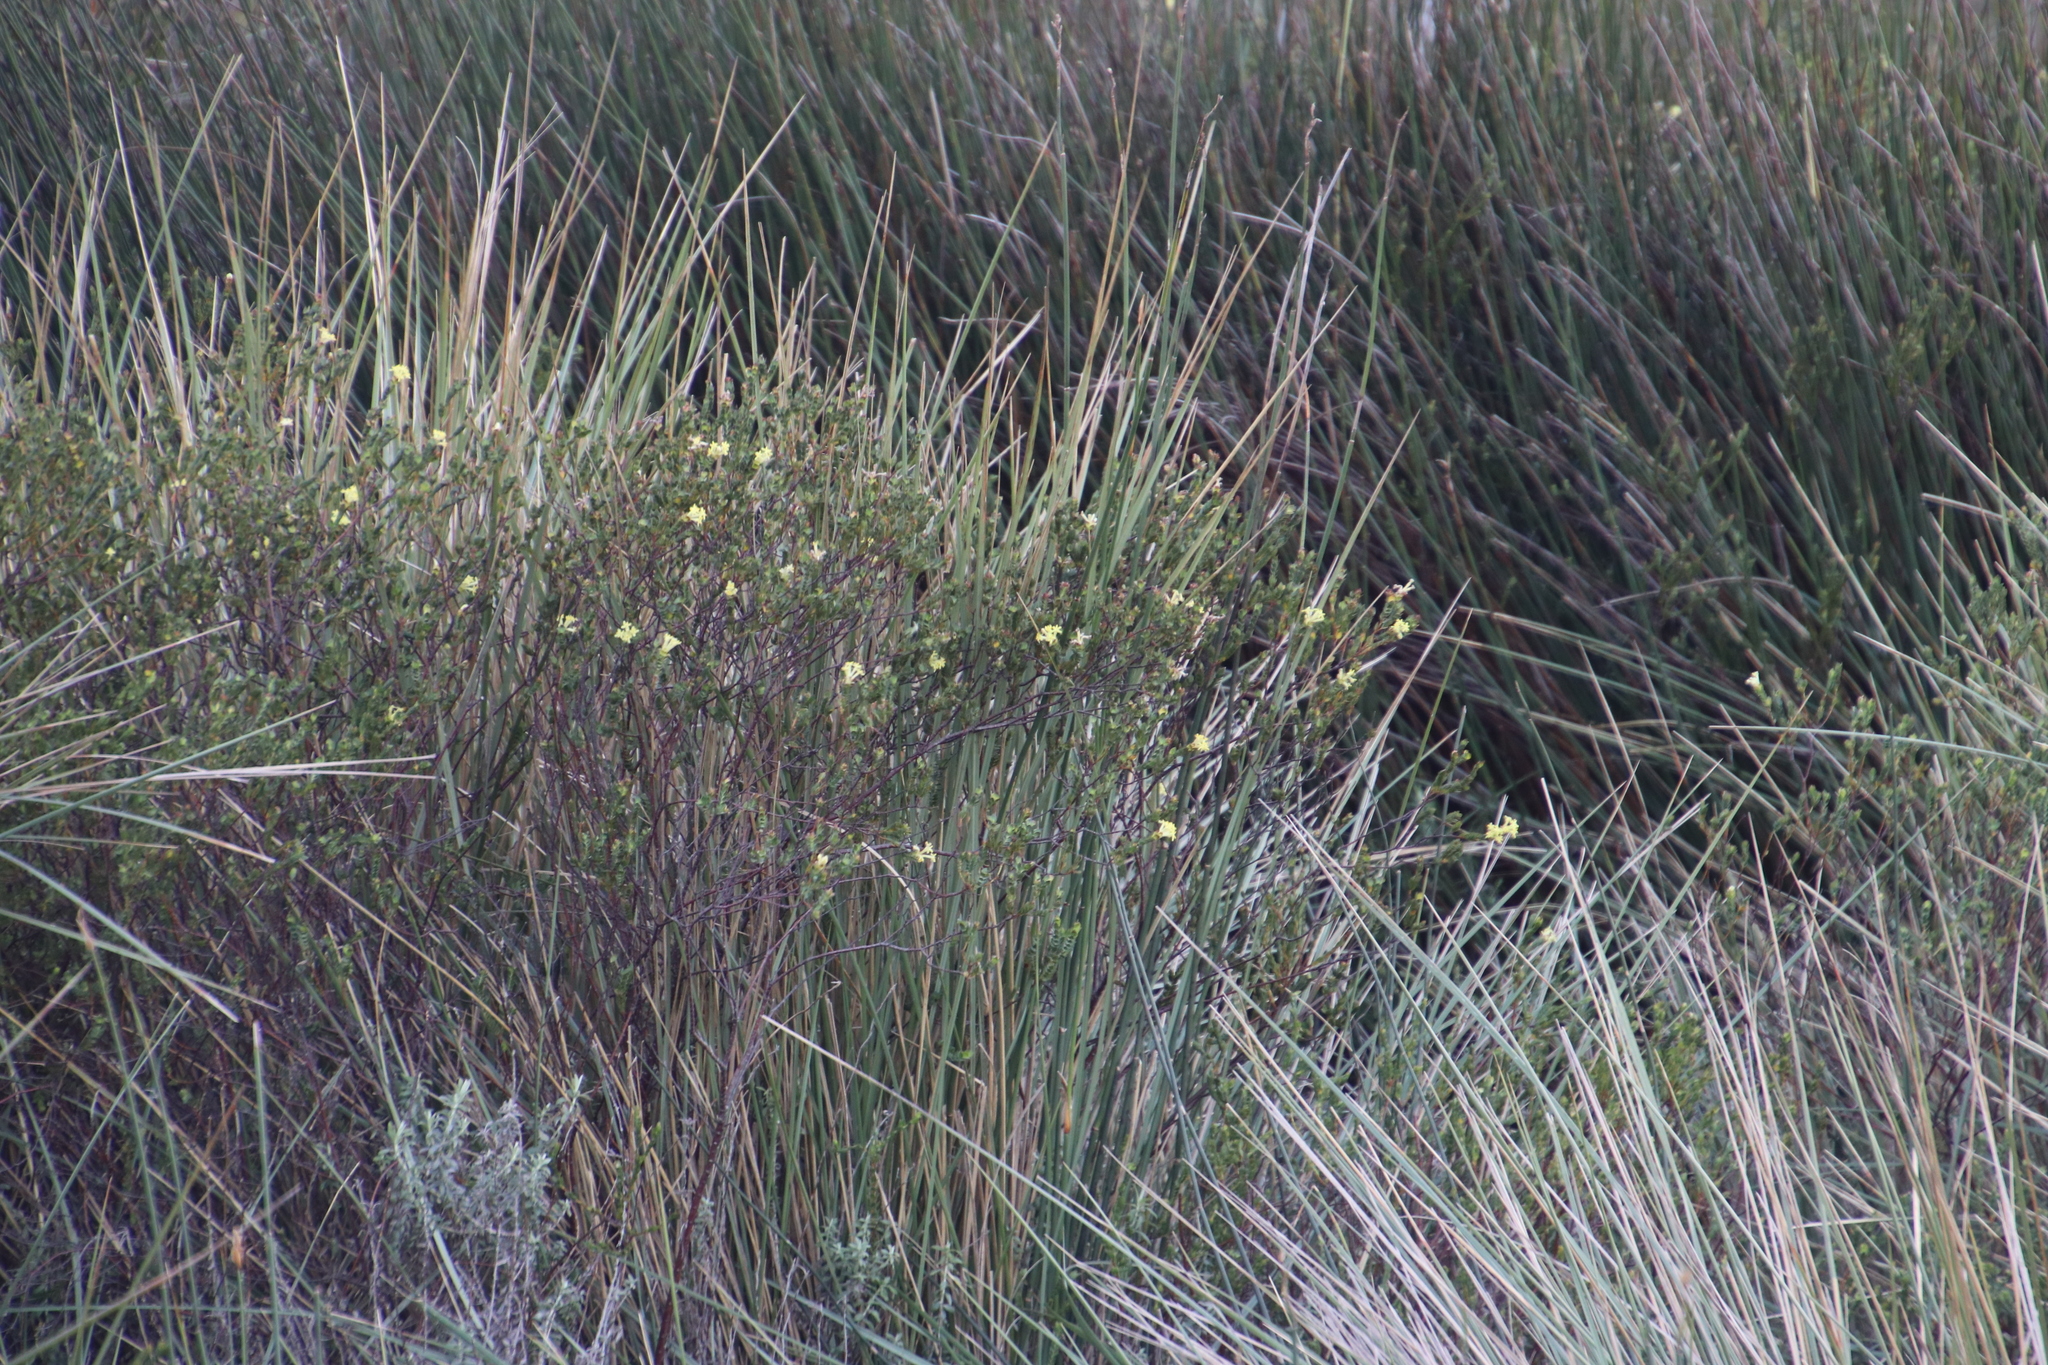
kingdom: Plantae
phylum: Tracheophyta
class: Magnoliopsida
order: Malvales
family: Thymelaeaceae
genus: Gnidia
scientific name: Gnidia oppositifolia
